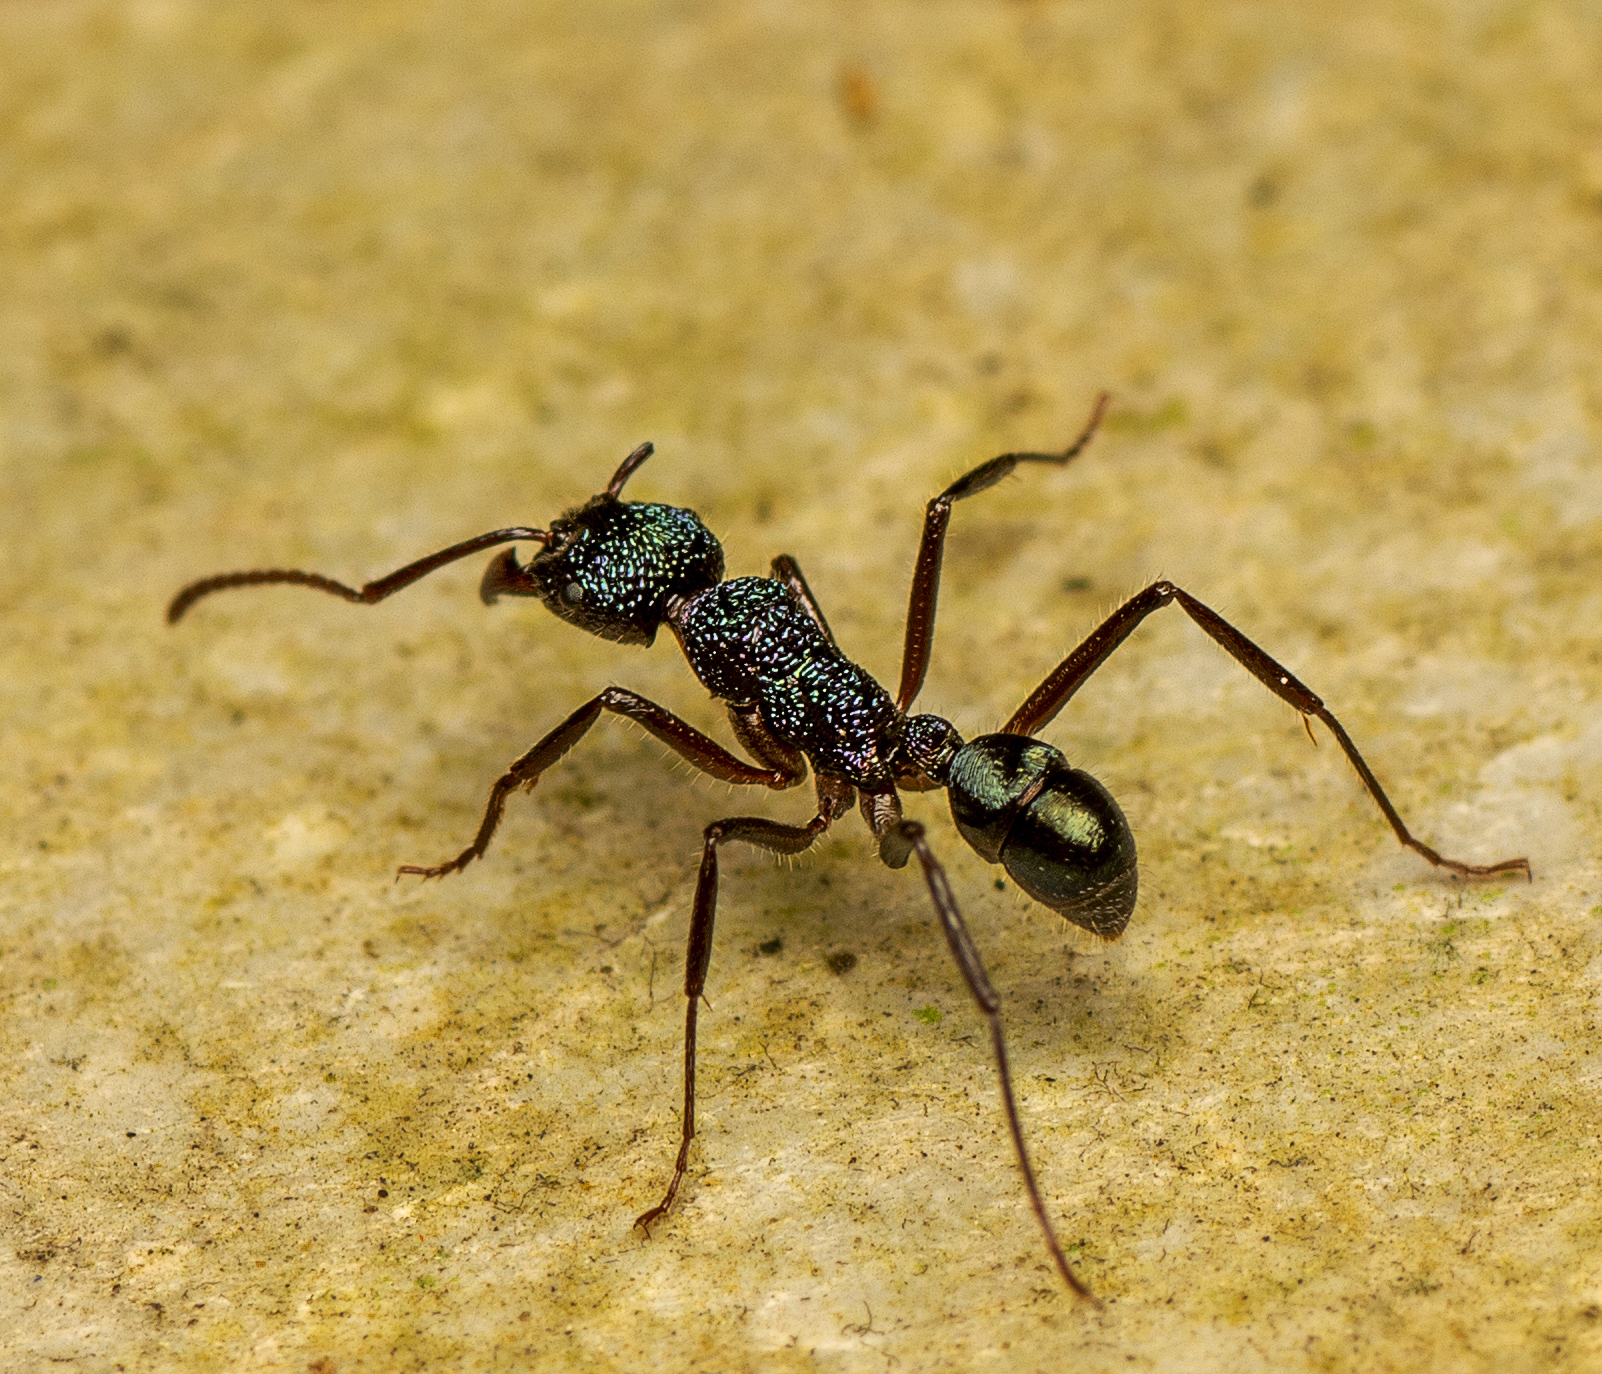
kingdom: Animalia
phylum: Arthropoda
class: Insecta
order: Hymenoptera
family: Formicidae
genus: Rhytidoponera
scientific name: Rhytidoponera purpurea
